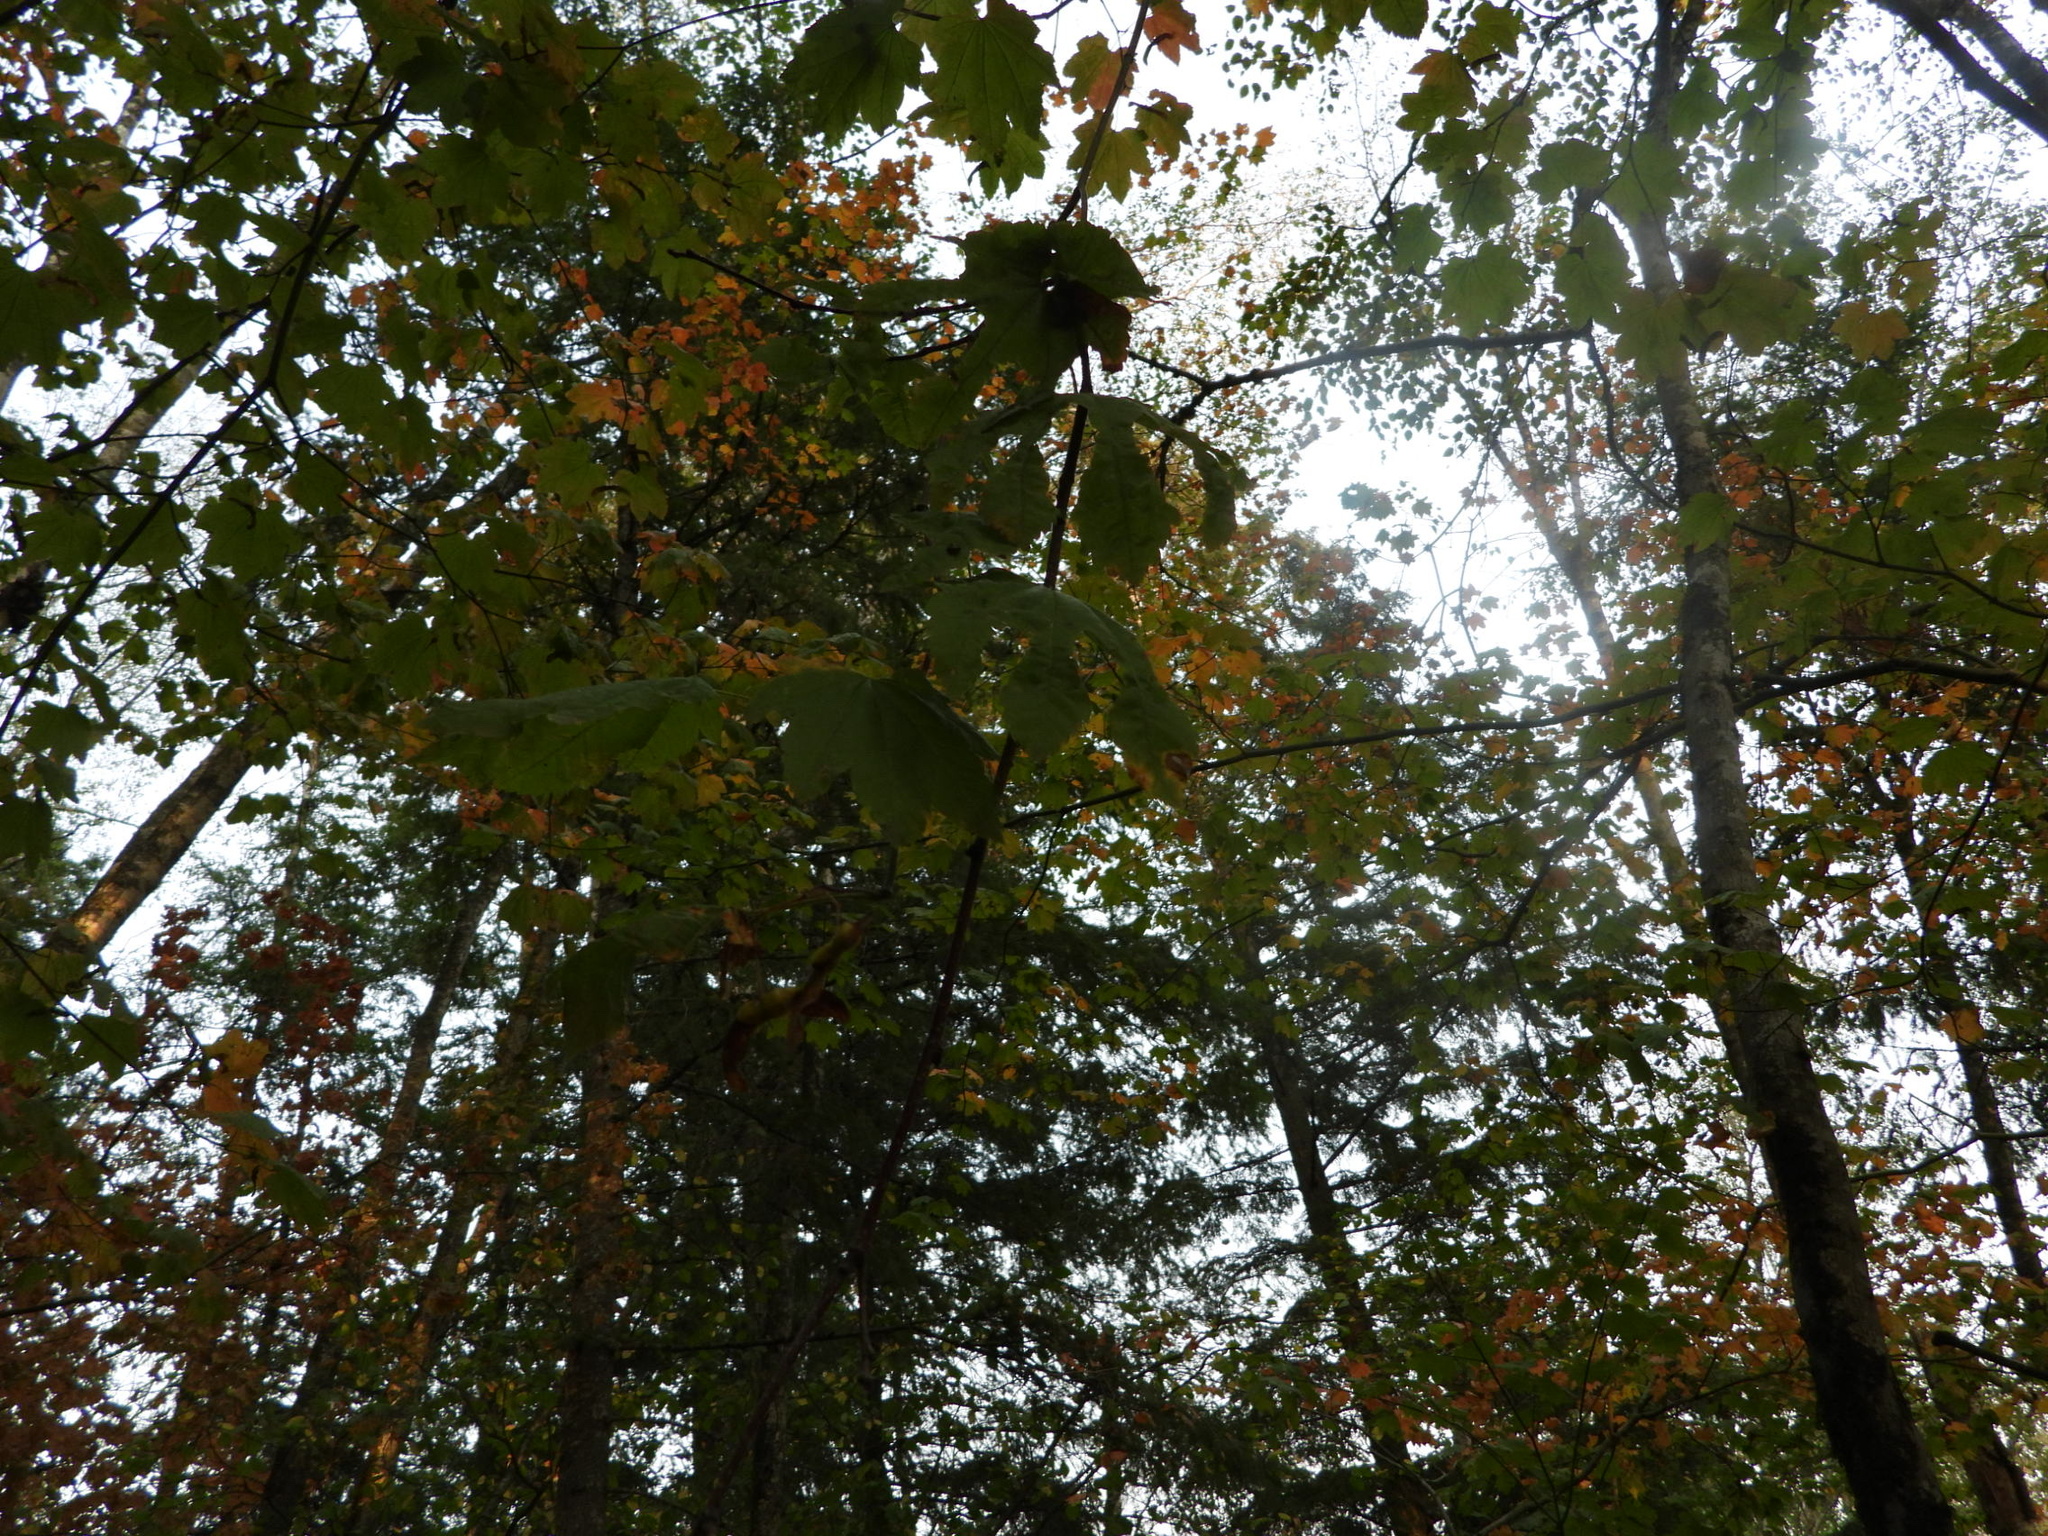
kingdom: Plantae
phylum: Tracheophyta
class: Magnoliopsida
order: Sapindales
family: Sapindaceae
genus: Acer
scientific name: Acer circinatum
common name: Vine maple
